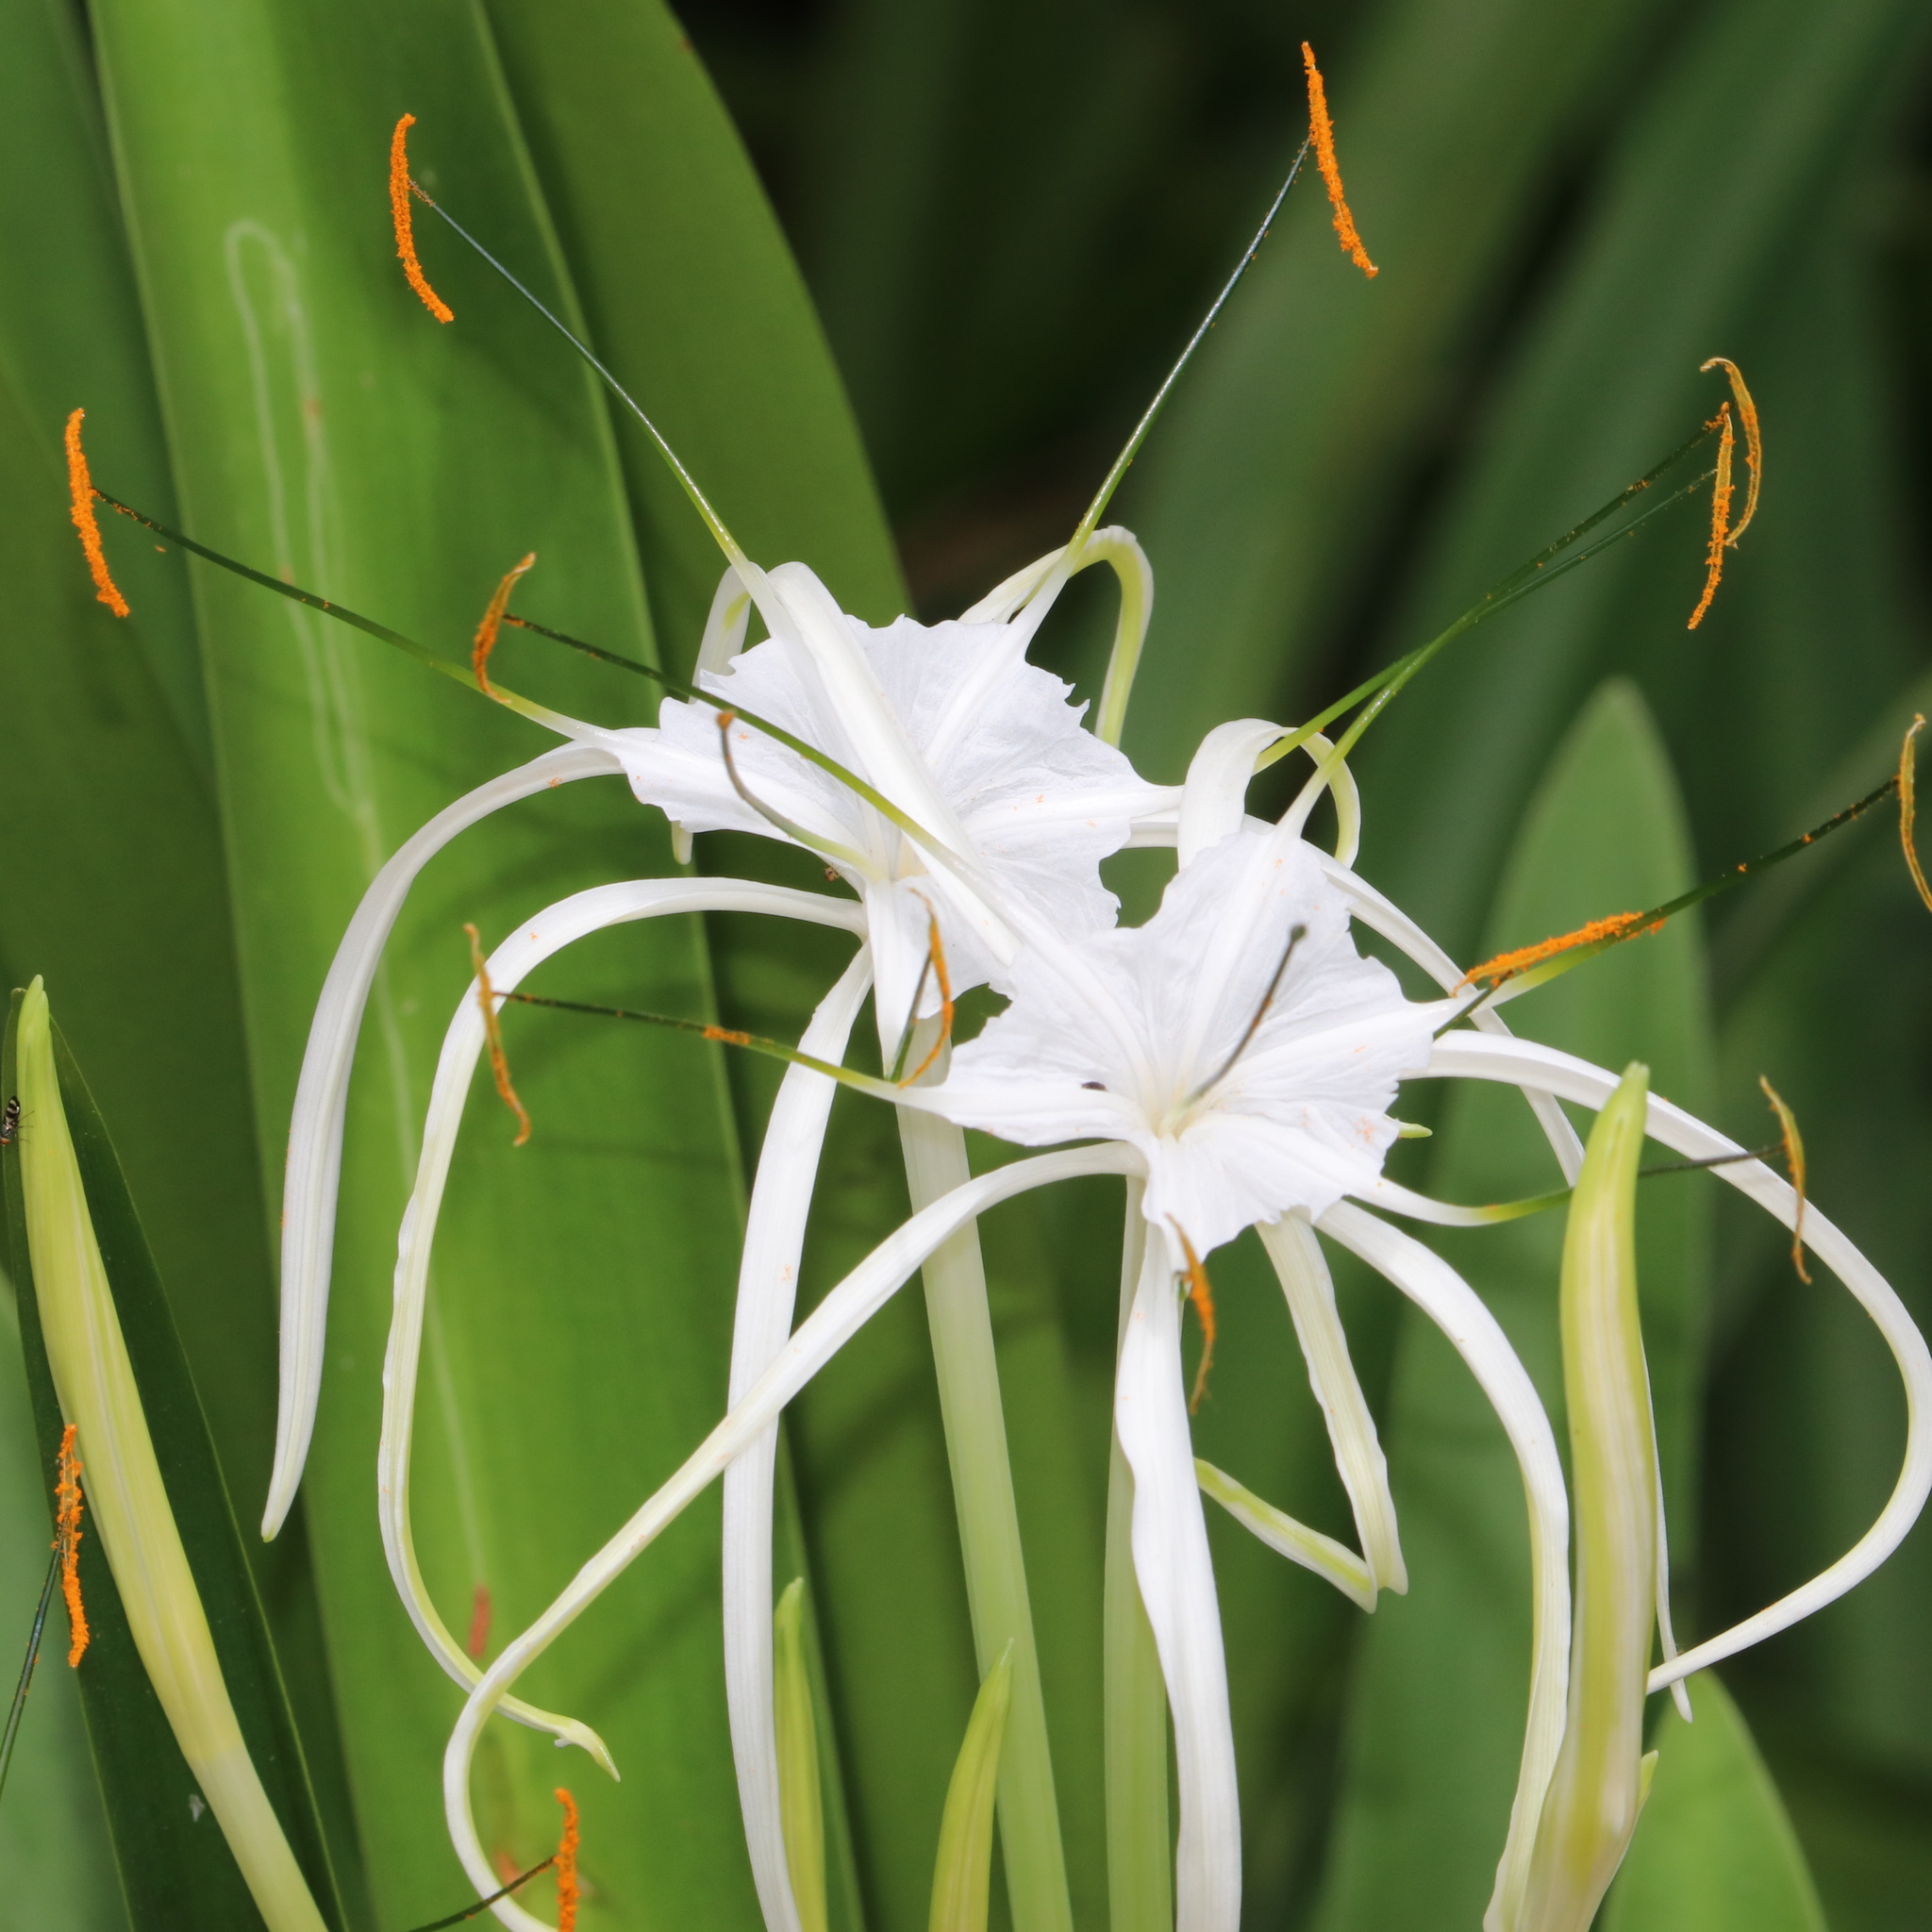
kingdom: Plantae
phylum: Tracheophyta
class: Liliopsida
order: Asparagales
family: Amaryllidaceae
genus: Hymenocallis
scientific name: Hymenocallis littoralis
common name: Beach spiderlily
